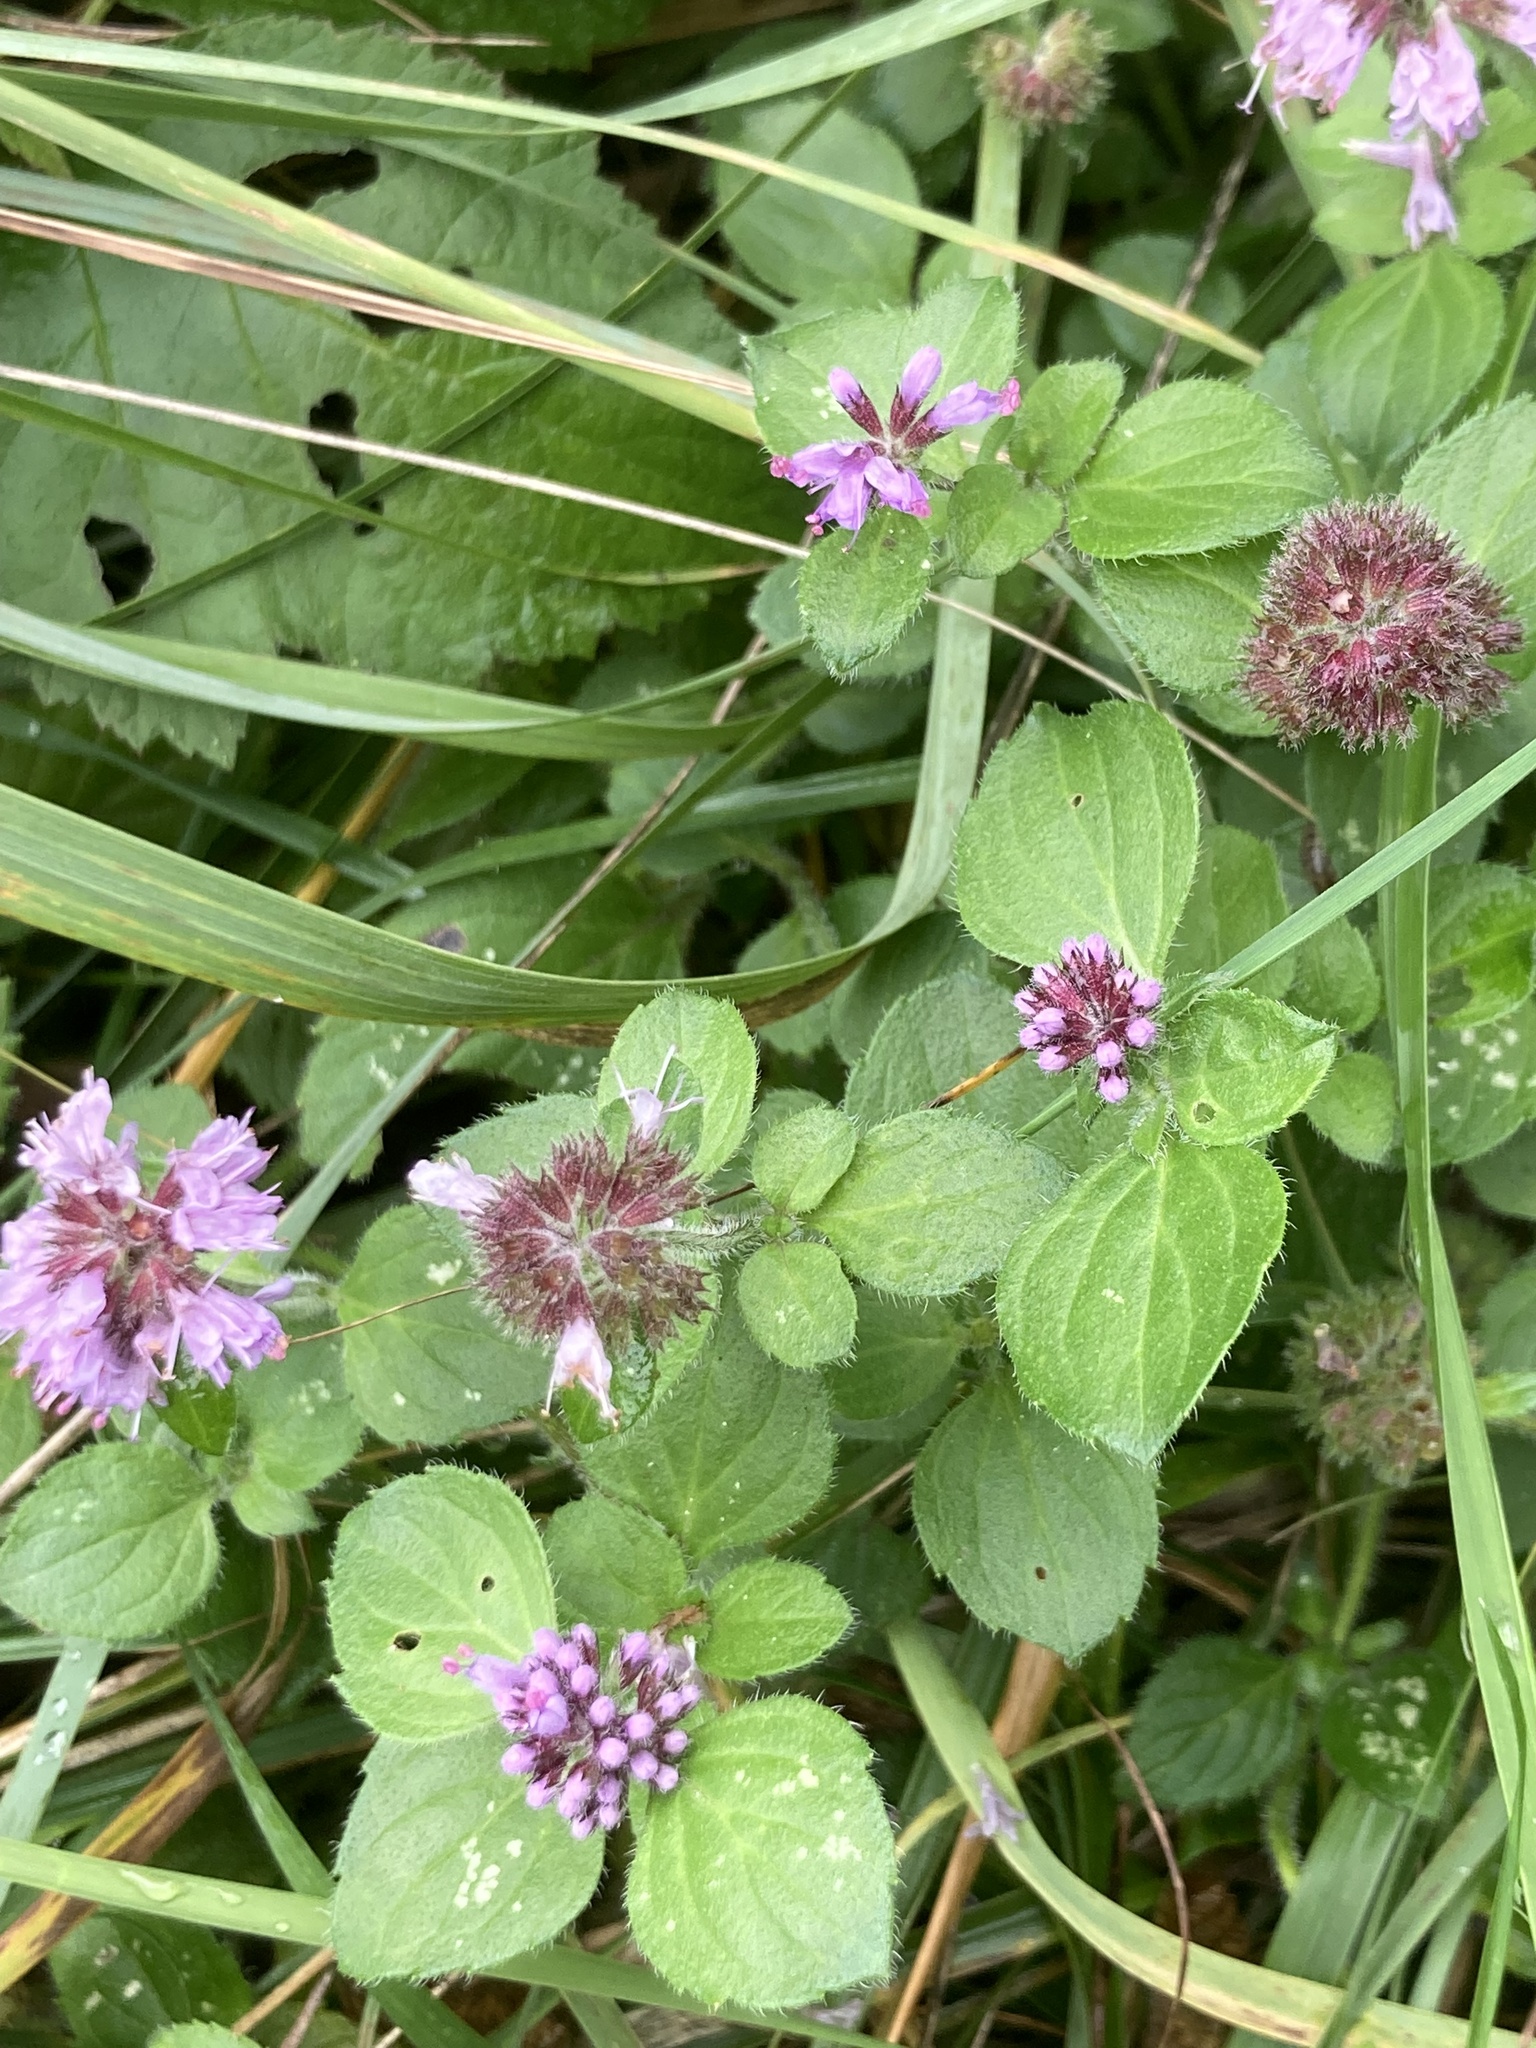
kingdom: Plantae
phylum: Tracheophyta
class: Magnoliopsida
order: Lamiales
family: Lamiaceae
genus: Mentha
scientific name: Mentha aquatica
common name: Water mint
